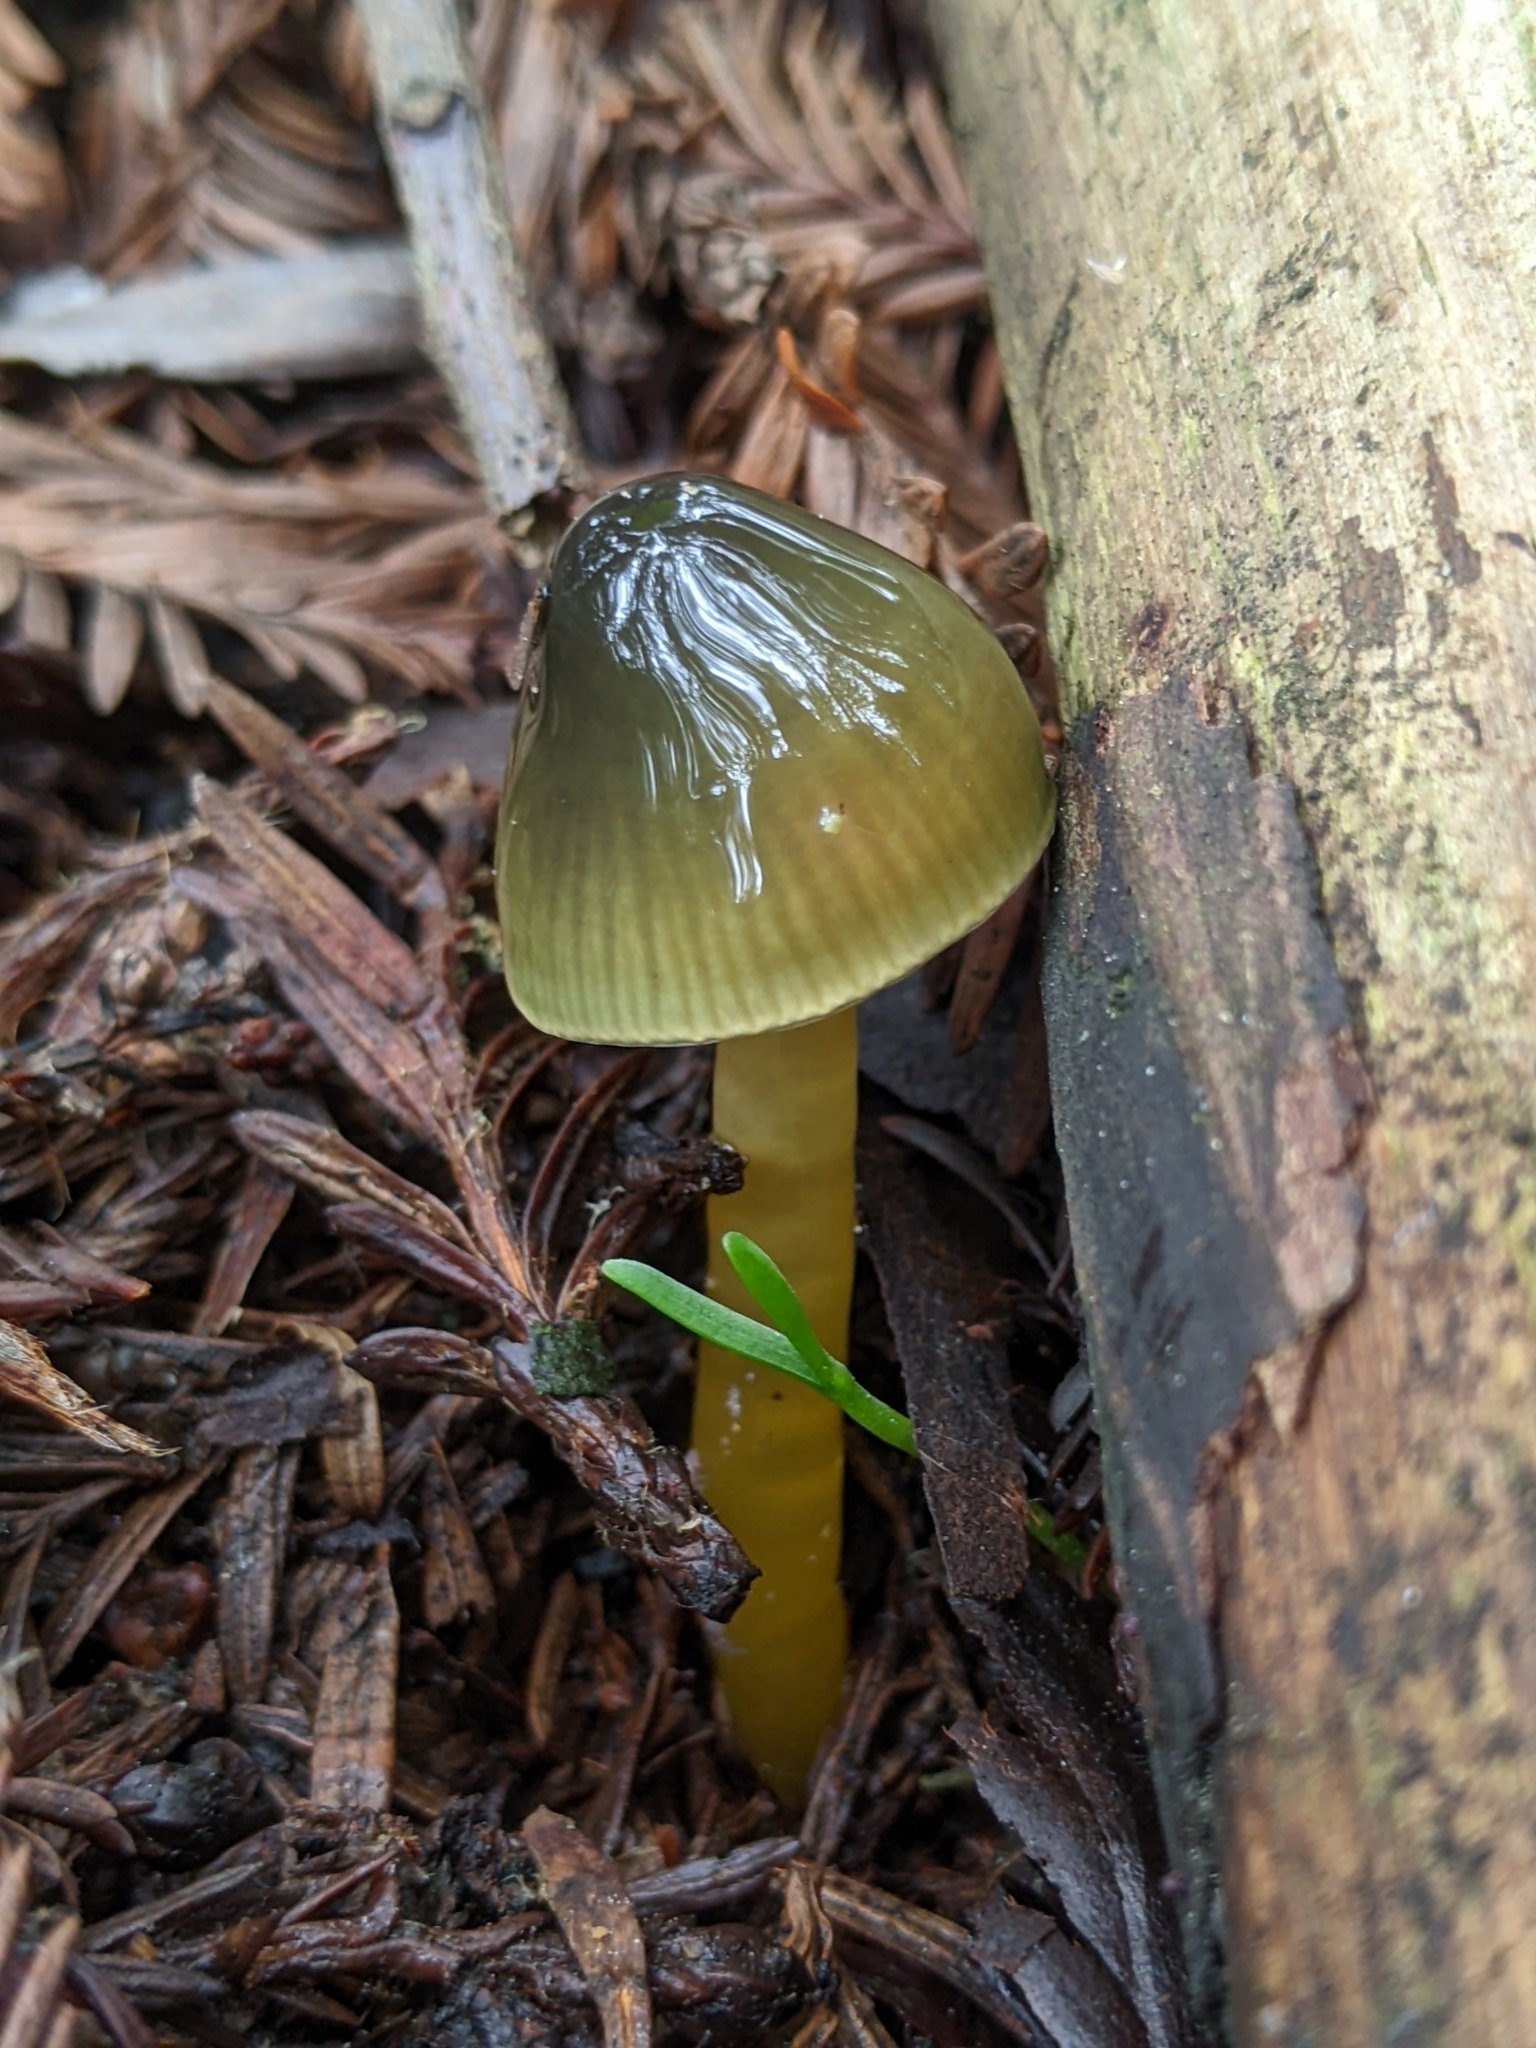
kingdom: Fungi
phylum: Basidiomycota
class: Agaricomycetes
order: Agaricales
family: Hygrophoraceae
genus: Gliophorus
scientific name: Gliophorus psittacinus
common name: Parrot wax-cap
